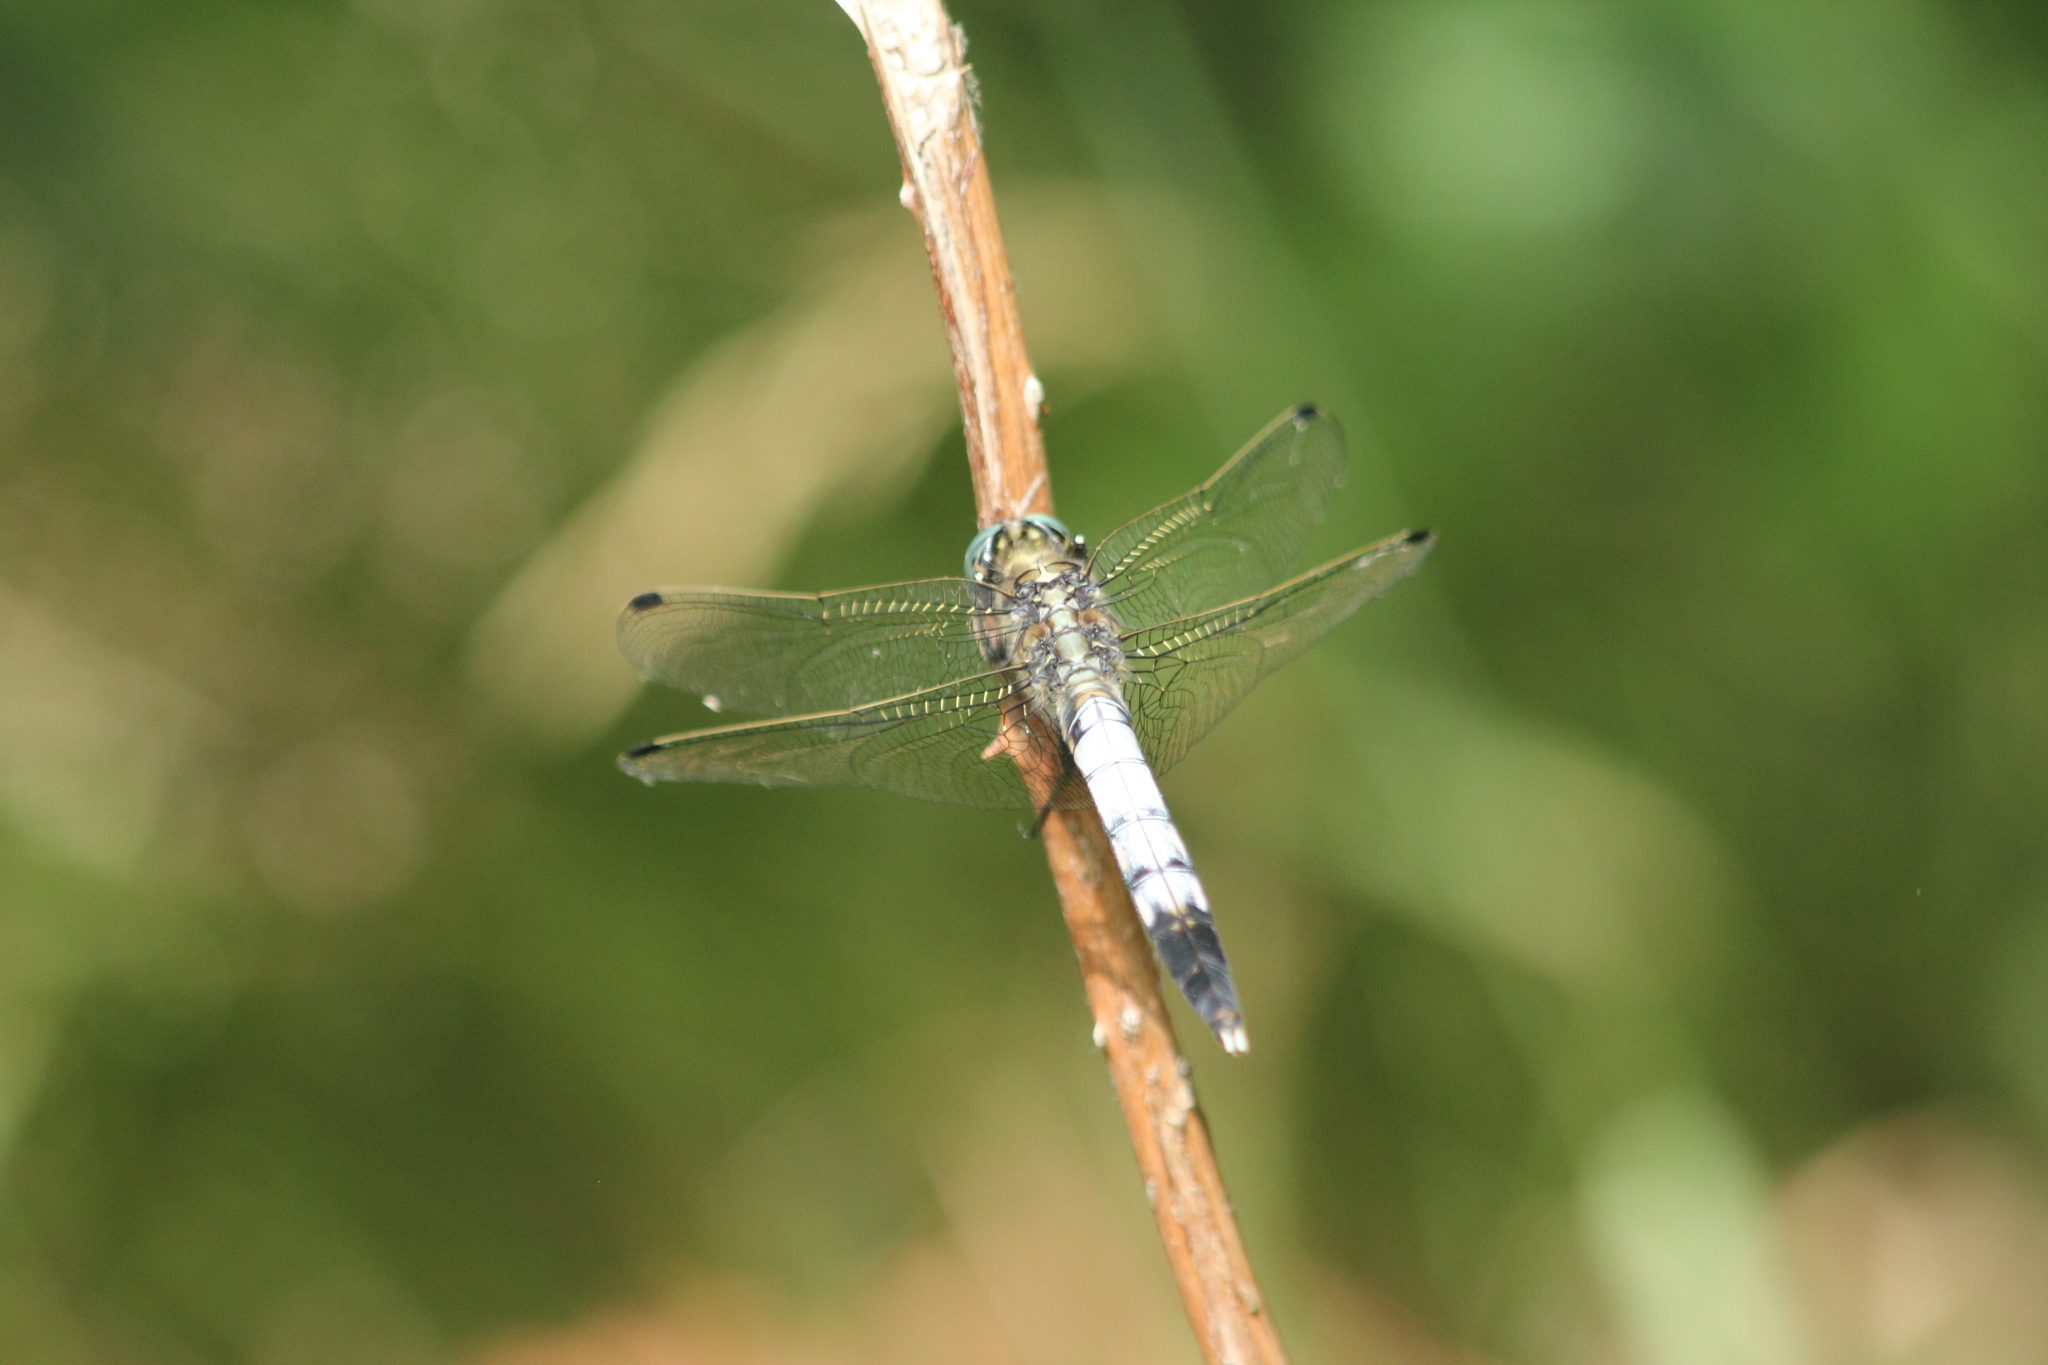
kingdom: Animalia
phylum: Arthropoda
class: Insecta
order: Odonata
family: Libellulidae
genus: Orthetrum
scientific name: Orthetrum albistylum
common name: White-tailed skimmer
